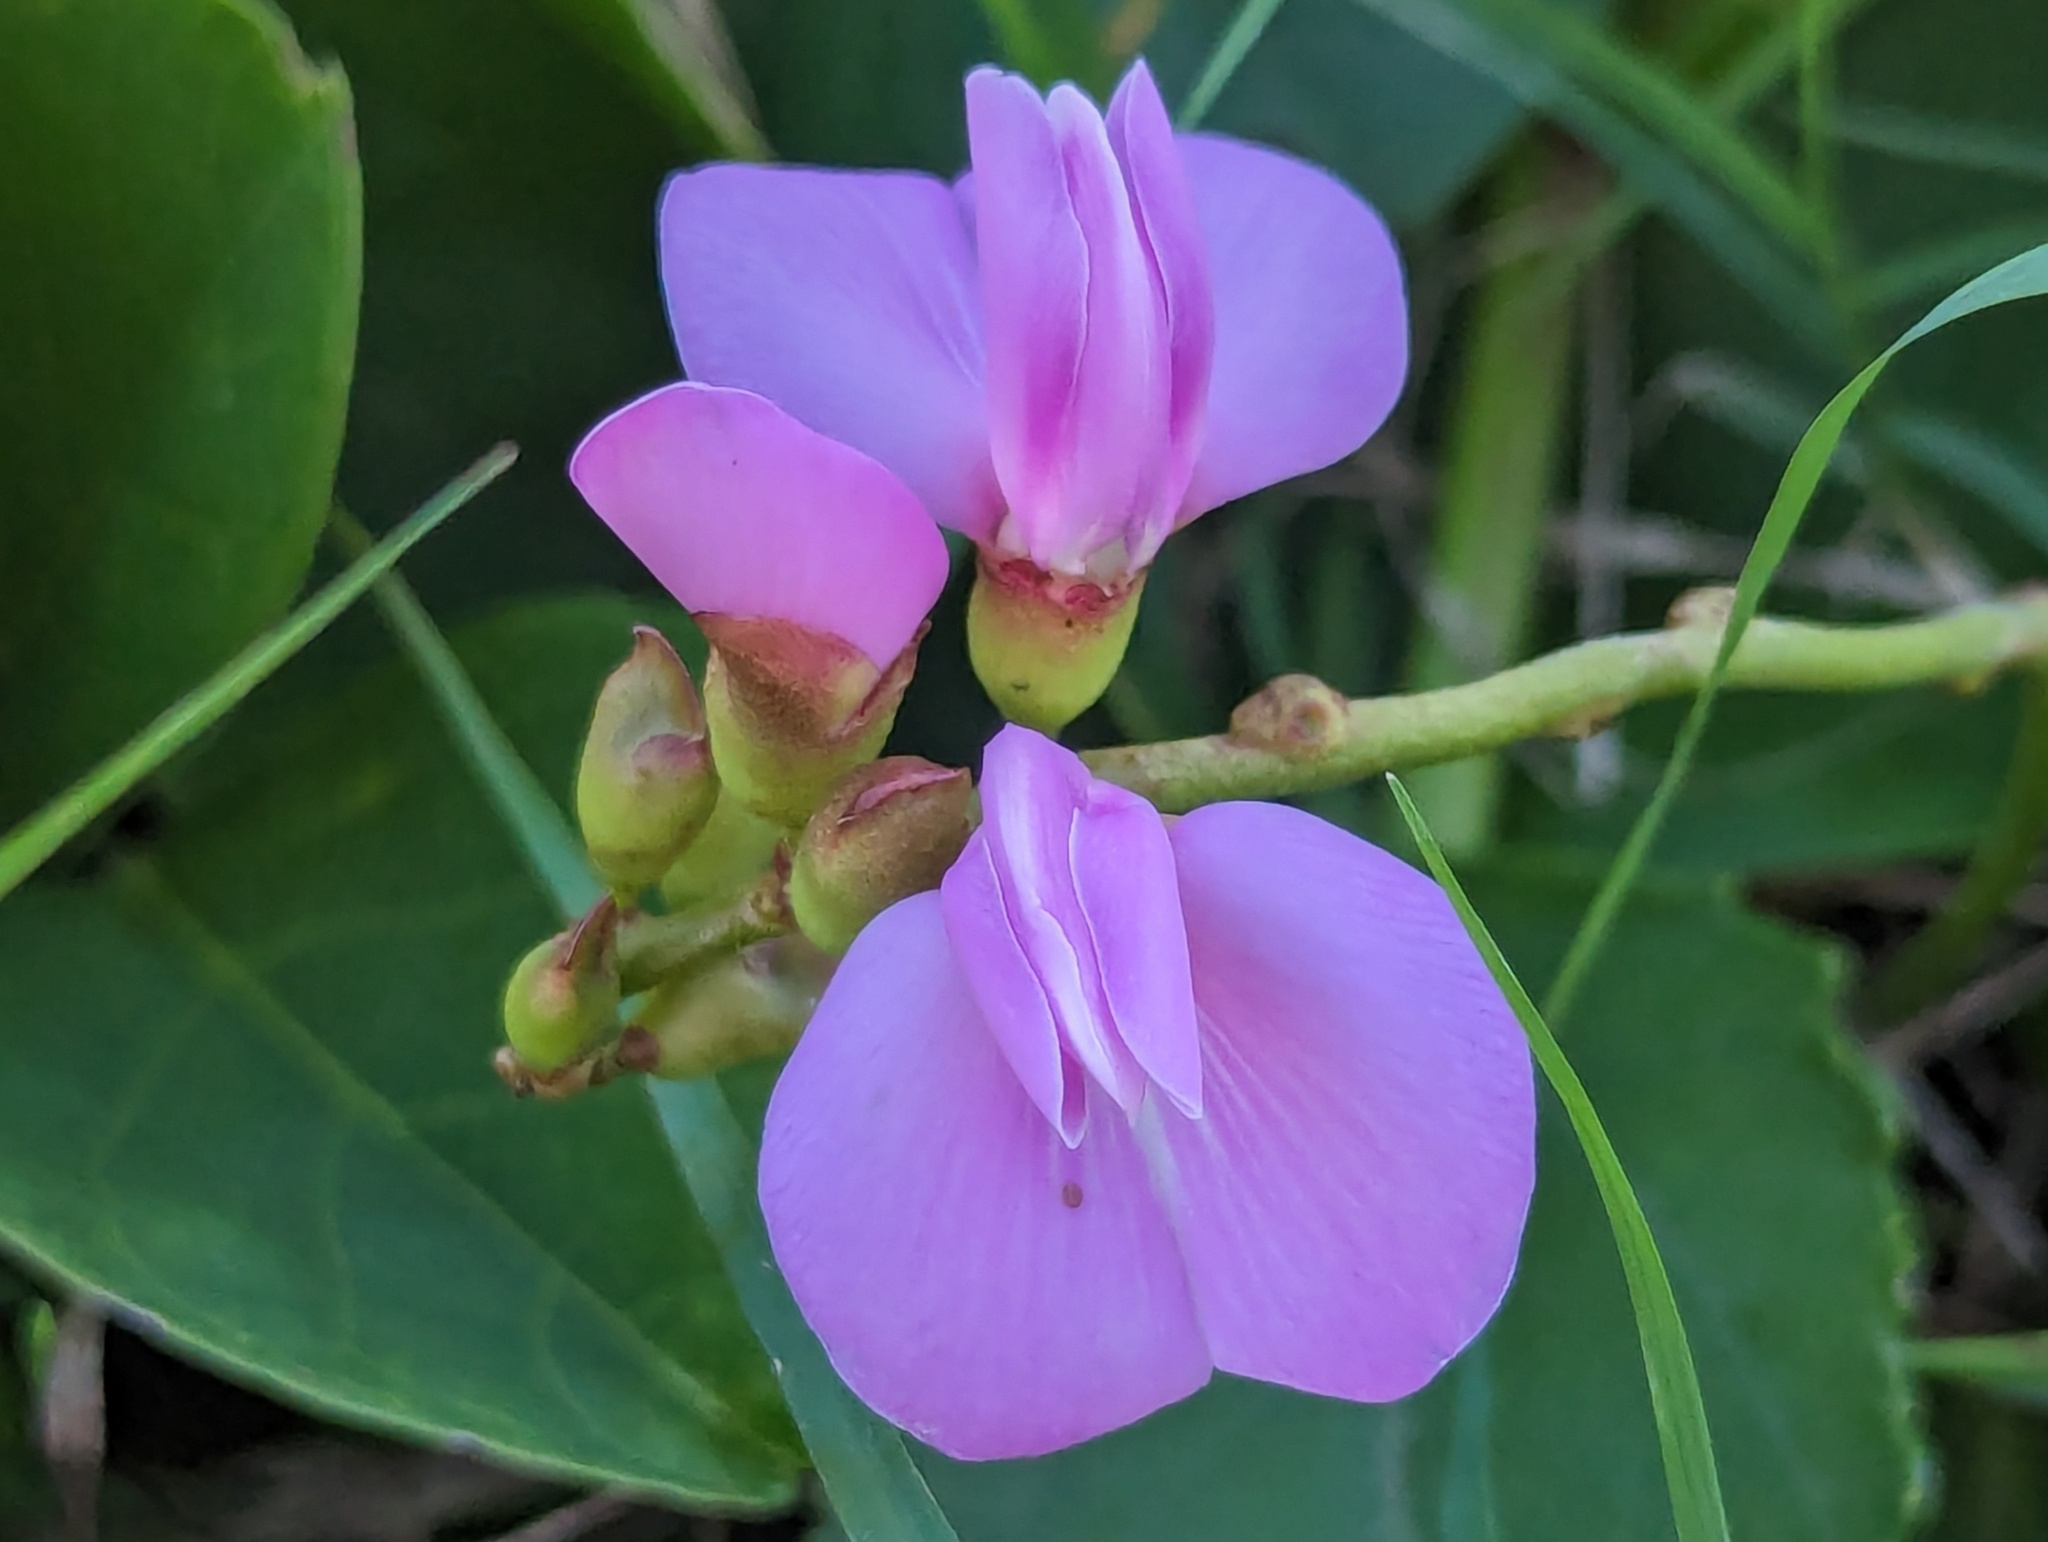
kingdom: Plantae
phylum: Tracheophyta
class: Magnoliopsida
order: Fabales
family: Fabaceae
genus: Canavalia
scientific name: Canavalia rosea
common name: Beach-bean
